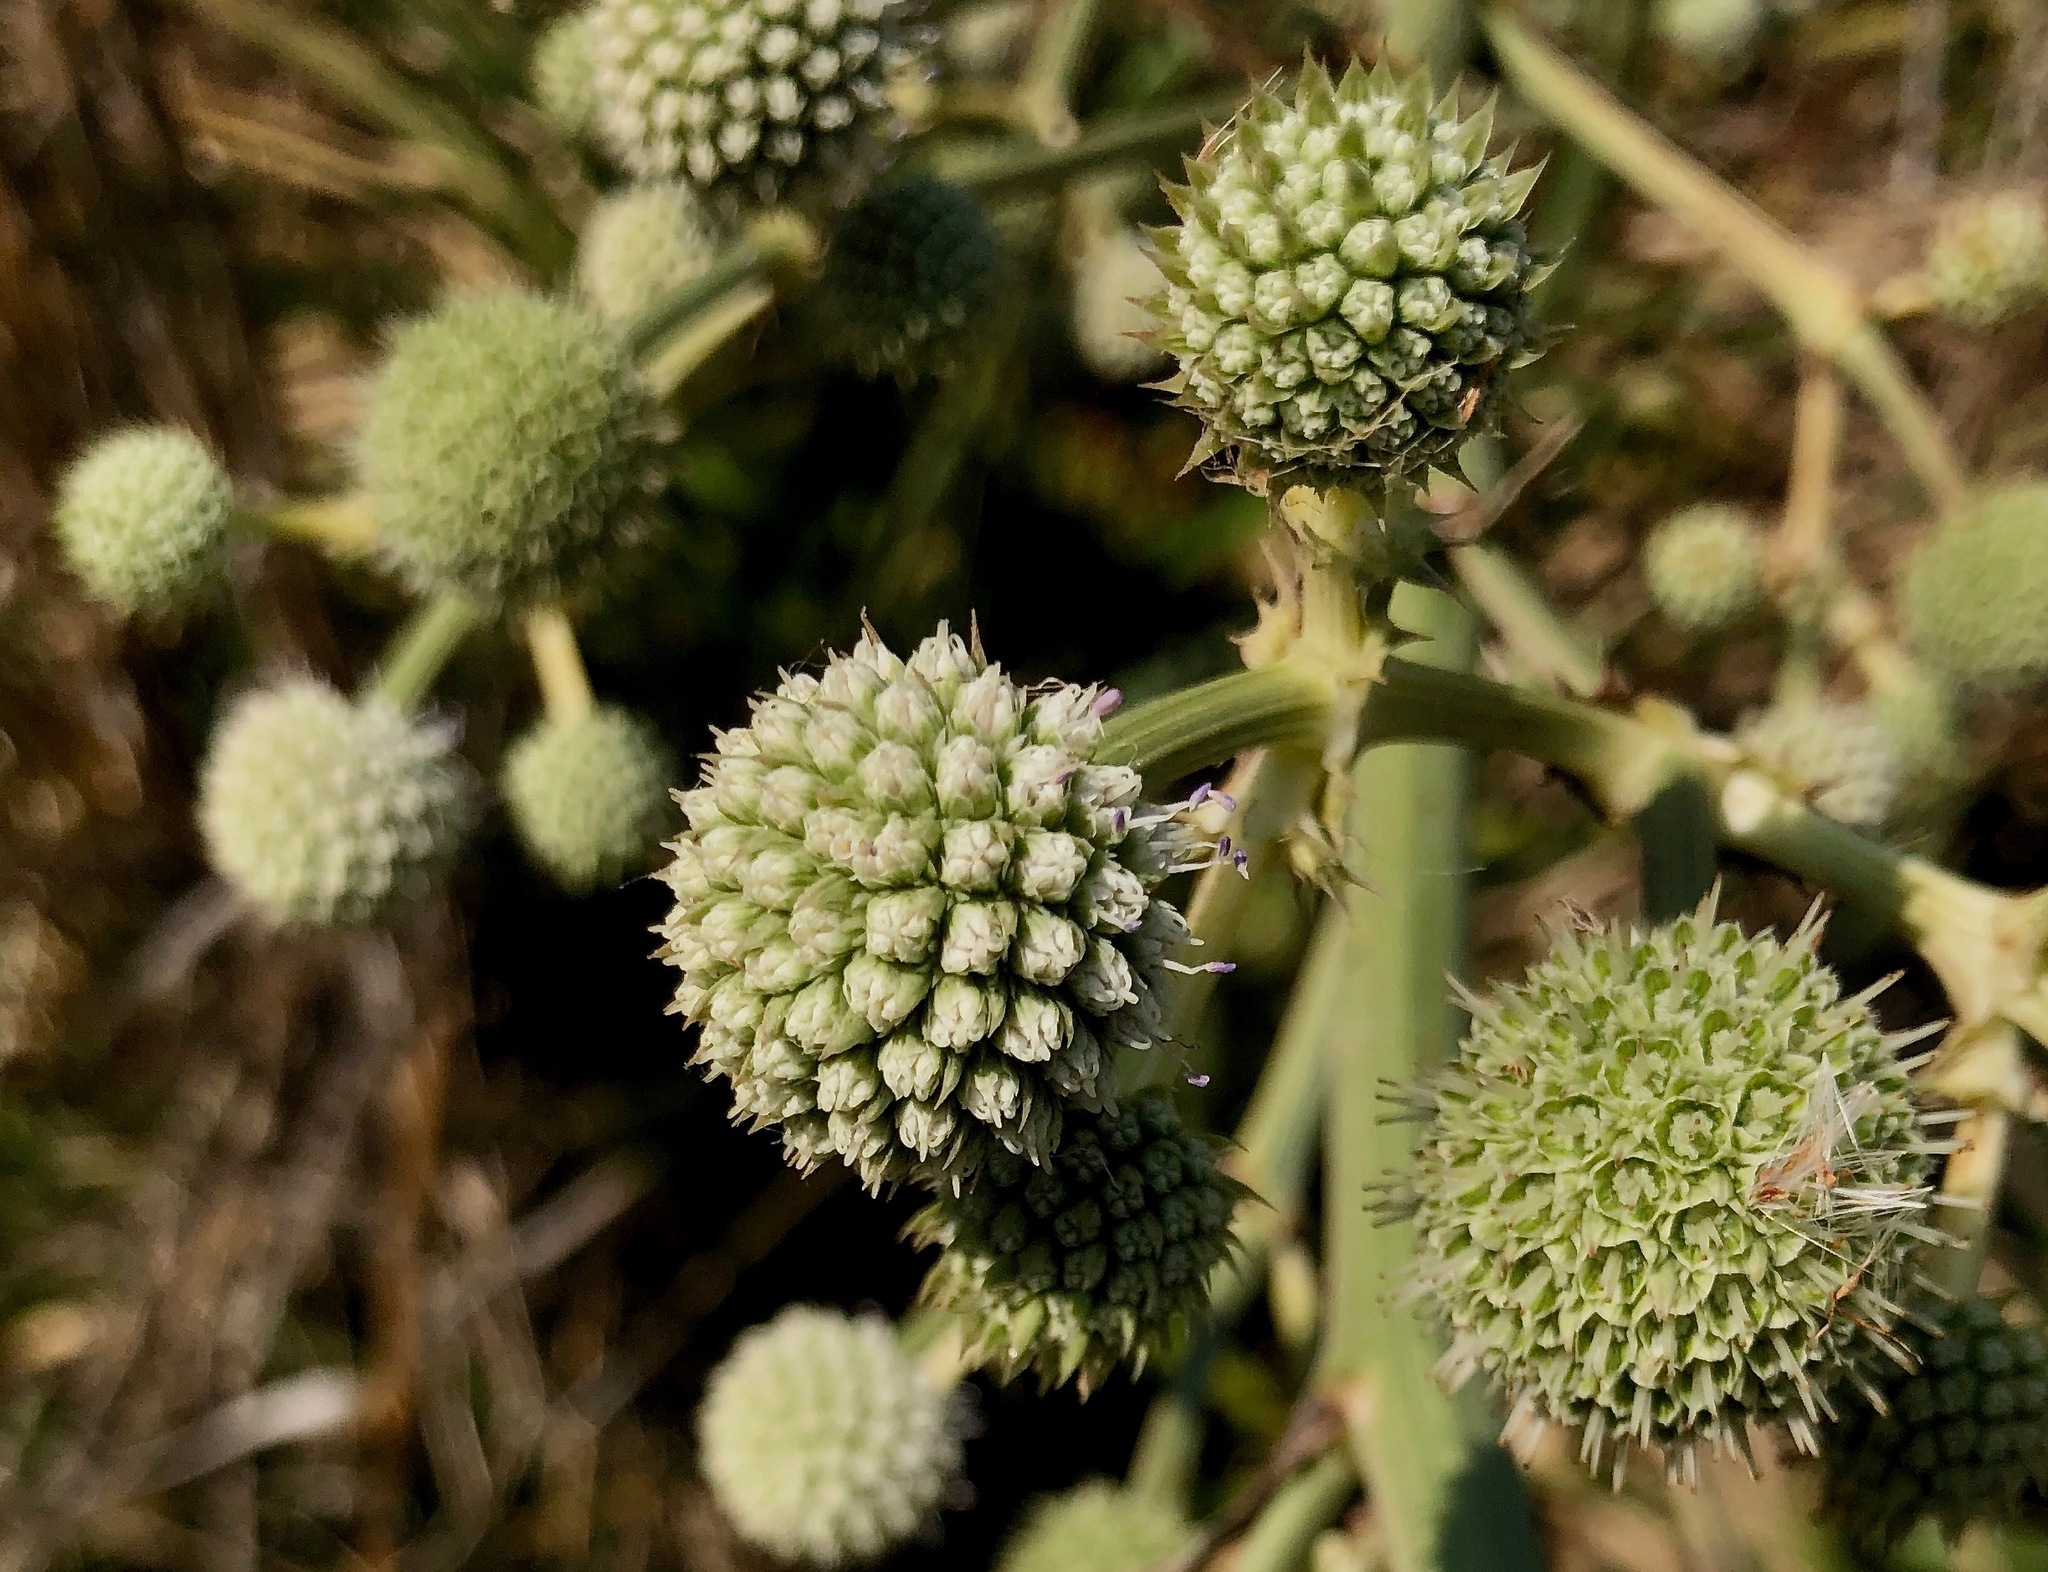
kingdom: Plantae
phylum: Tracheophyta
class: Magnoliopsida
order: Apiales
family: Apiaceae
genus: Eryngium
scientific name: Eryngium humboldtii
